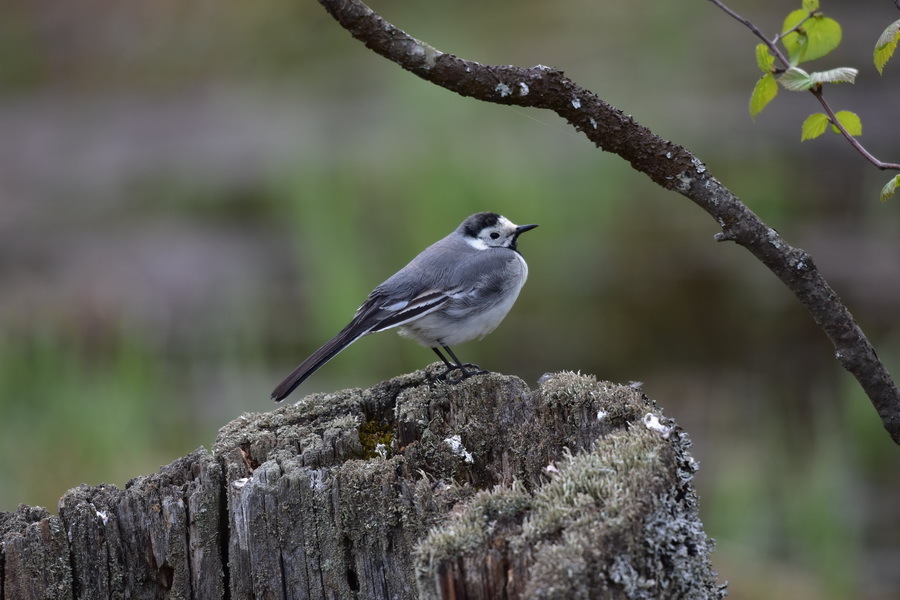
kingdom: Animalia
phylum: Chordata
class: Aves
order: Passeriformes
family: Motacillidae
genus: Motacilla
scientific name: Motacilla alba
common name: White wagtail
